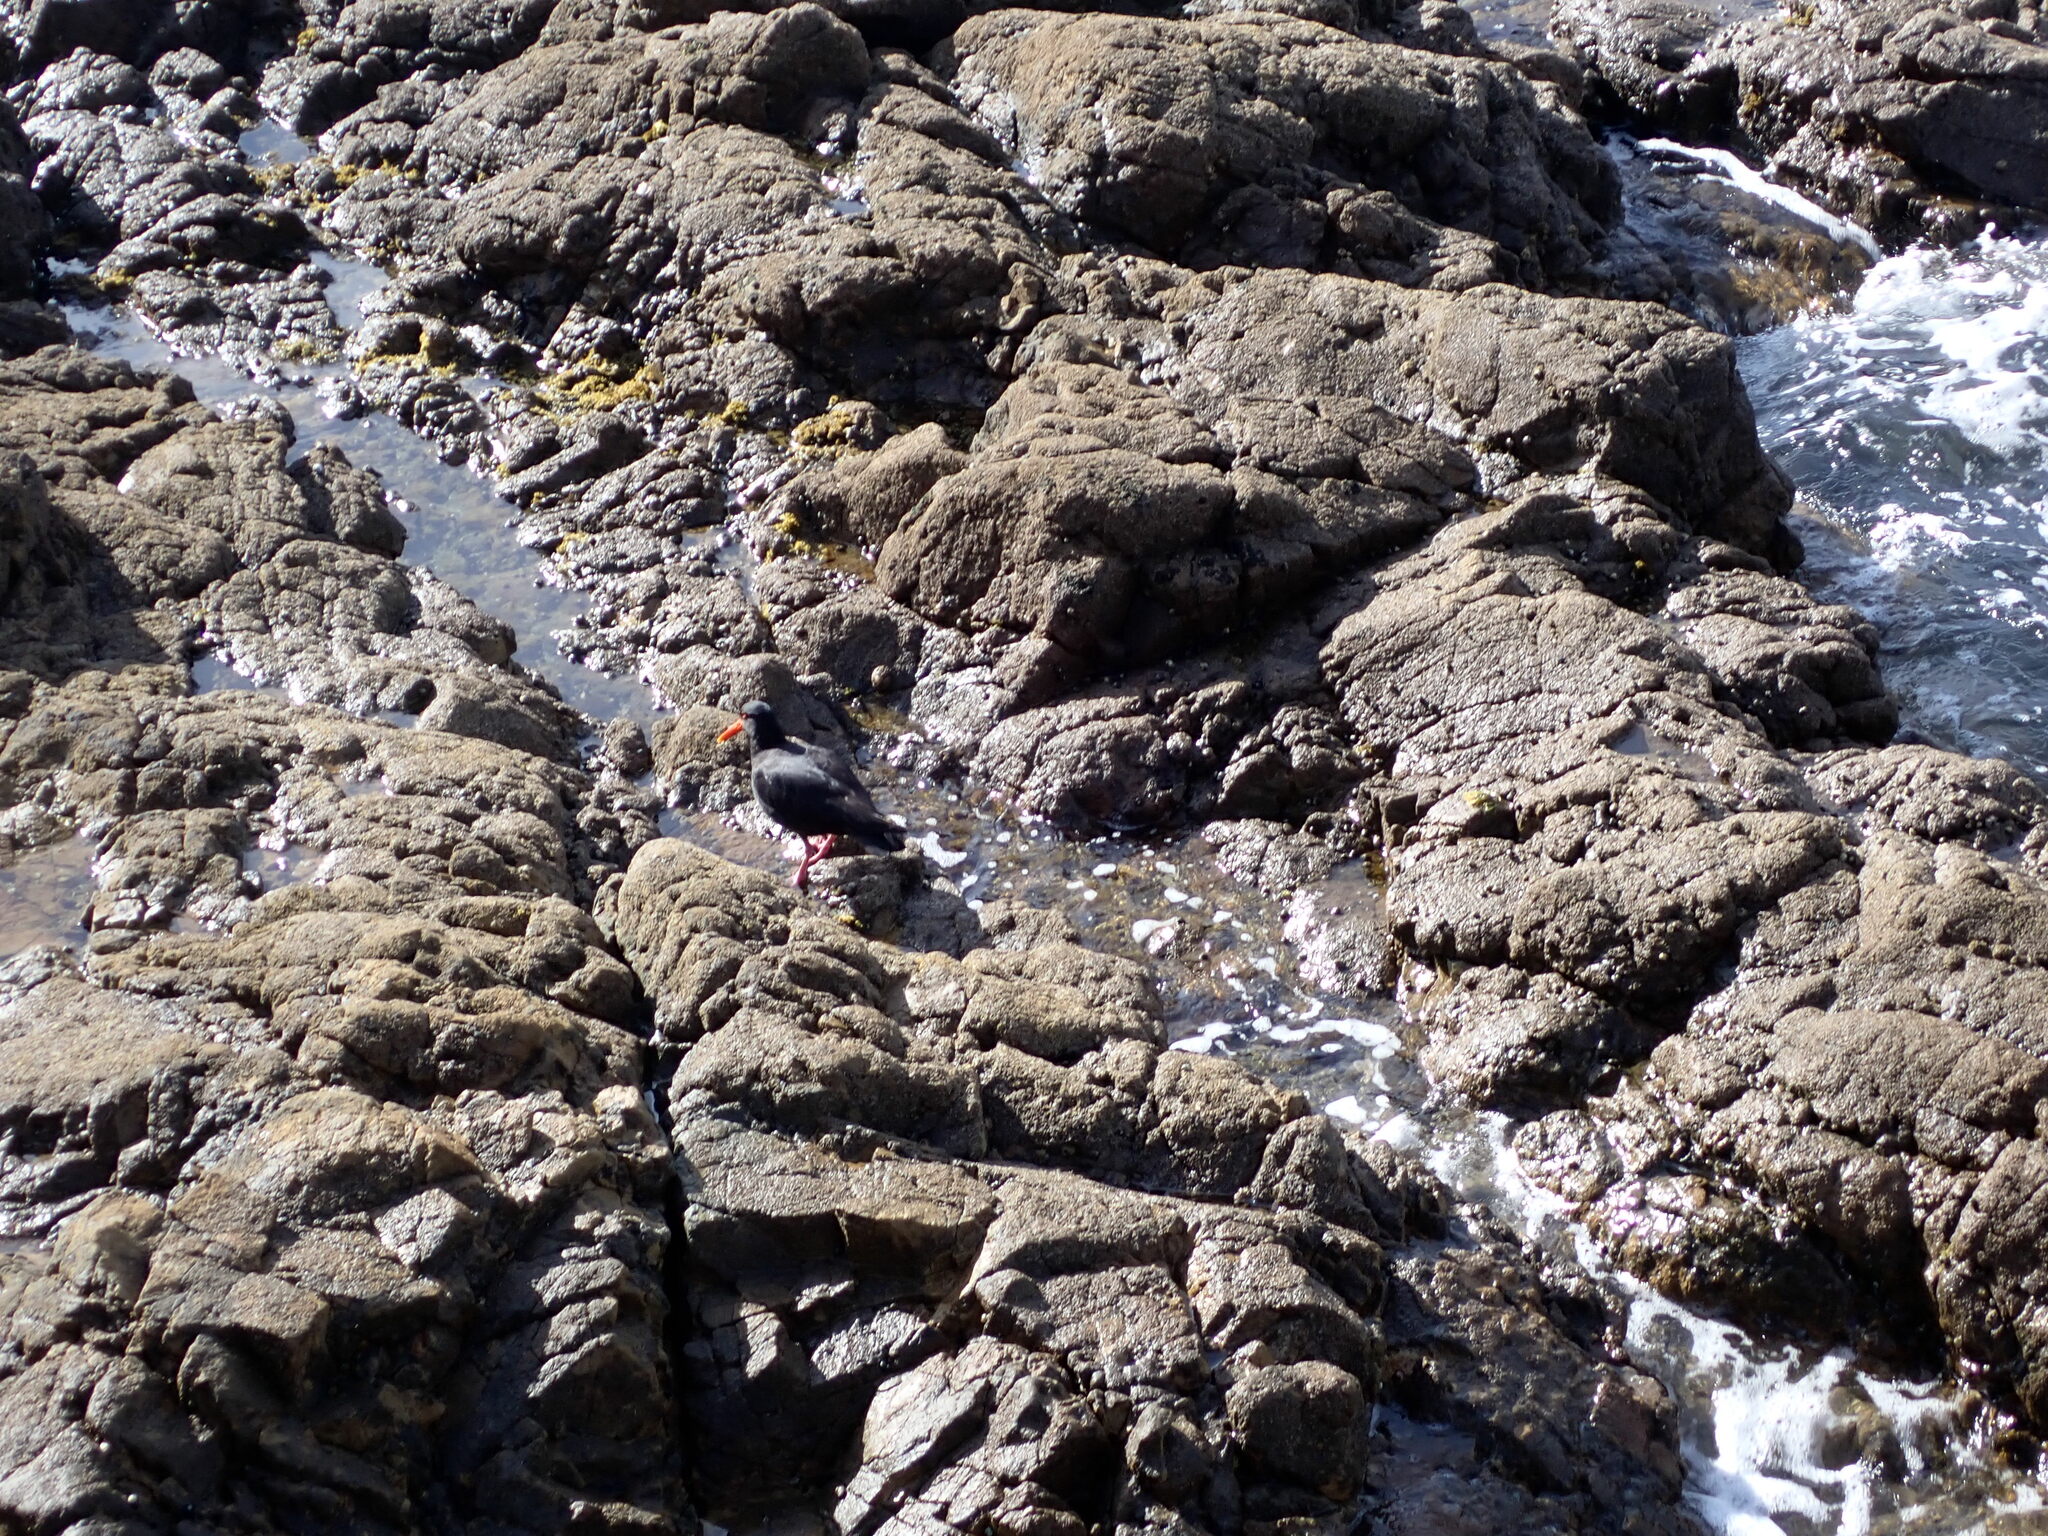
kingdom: Animalia
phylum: Chordata
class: Aves
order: Charadriiformes
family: Haematopodidae
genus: Haematopus
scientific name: Haematopus unicolor
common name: Variable oystercatcher
